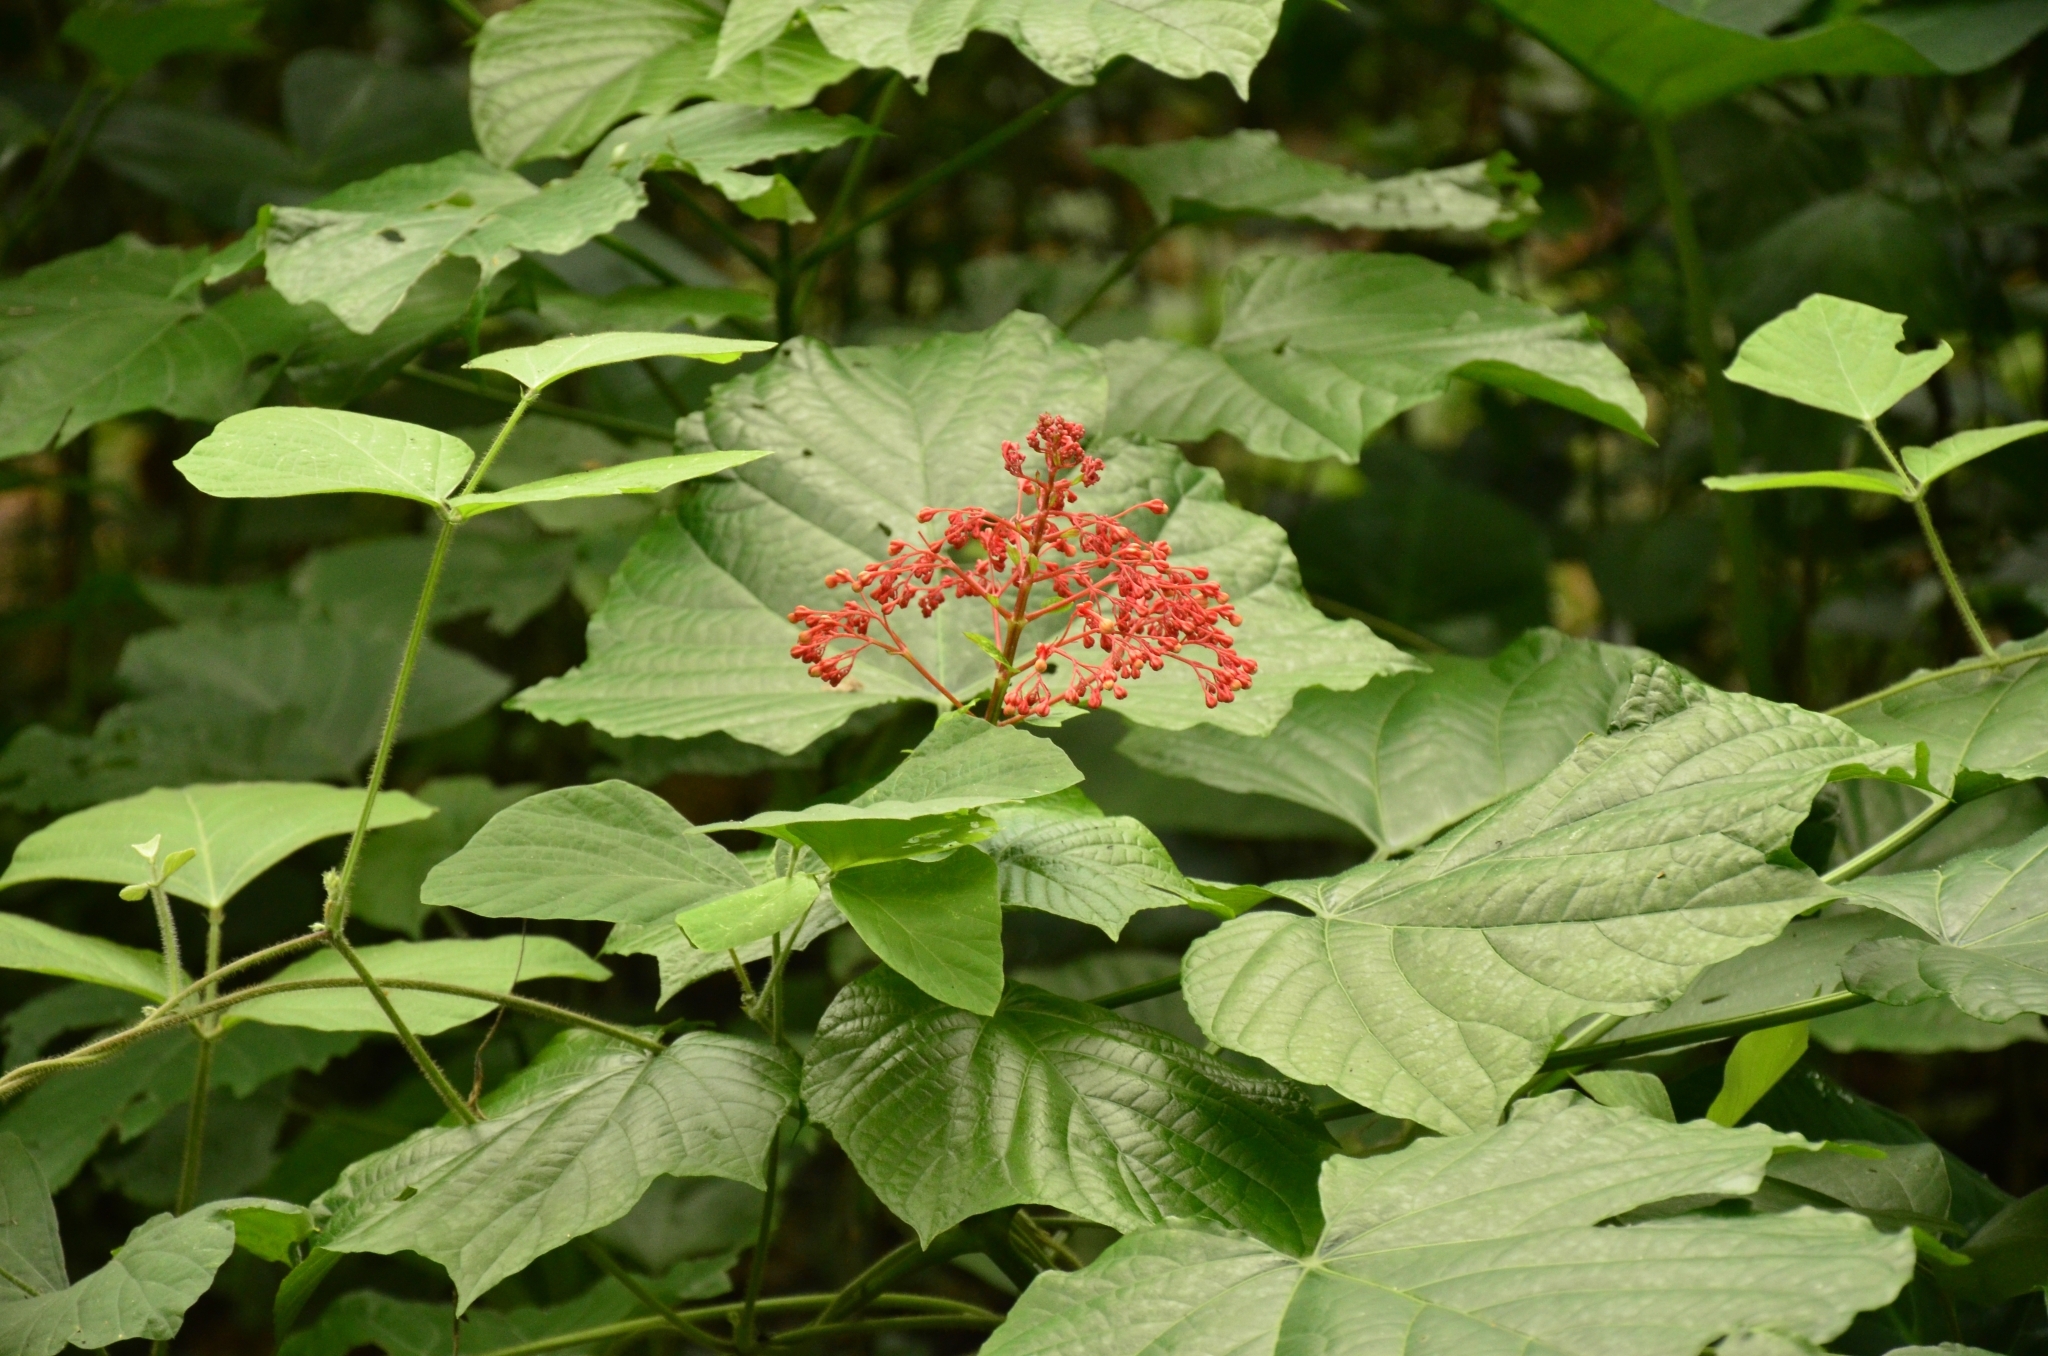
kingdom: Plantae
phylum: Tracheophyta
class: Magnoliopsida
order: Lamiales
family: Lamiaceae
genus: Clerodendrum
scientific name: Clerodendrum paniculatum
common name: Pagoda-flower
